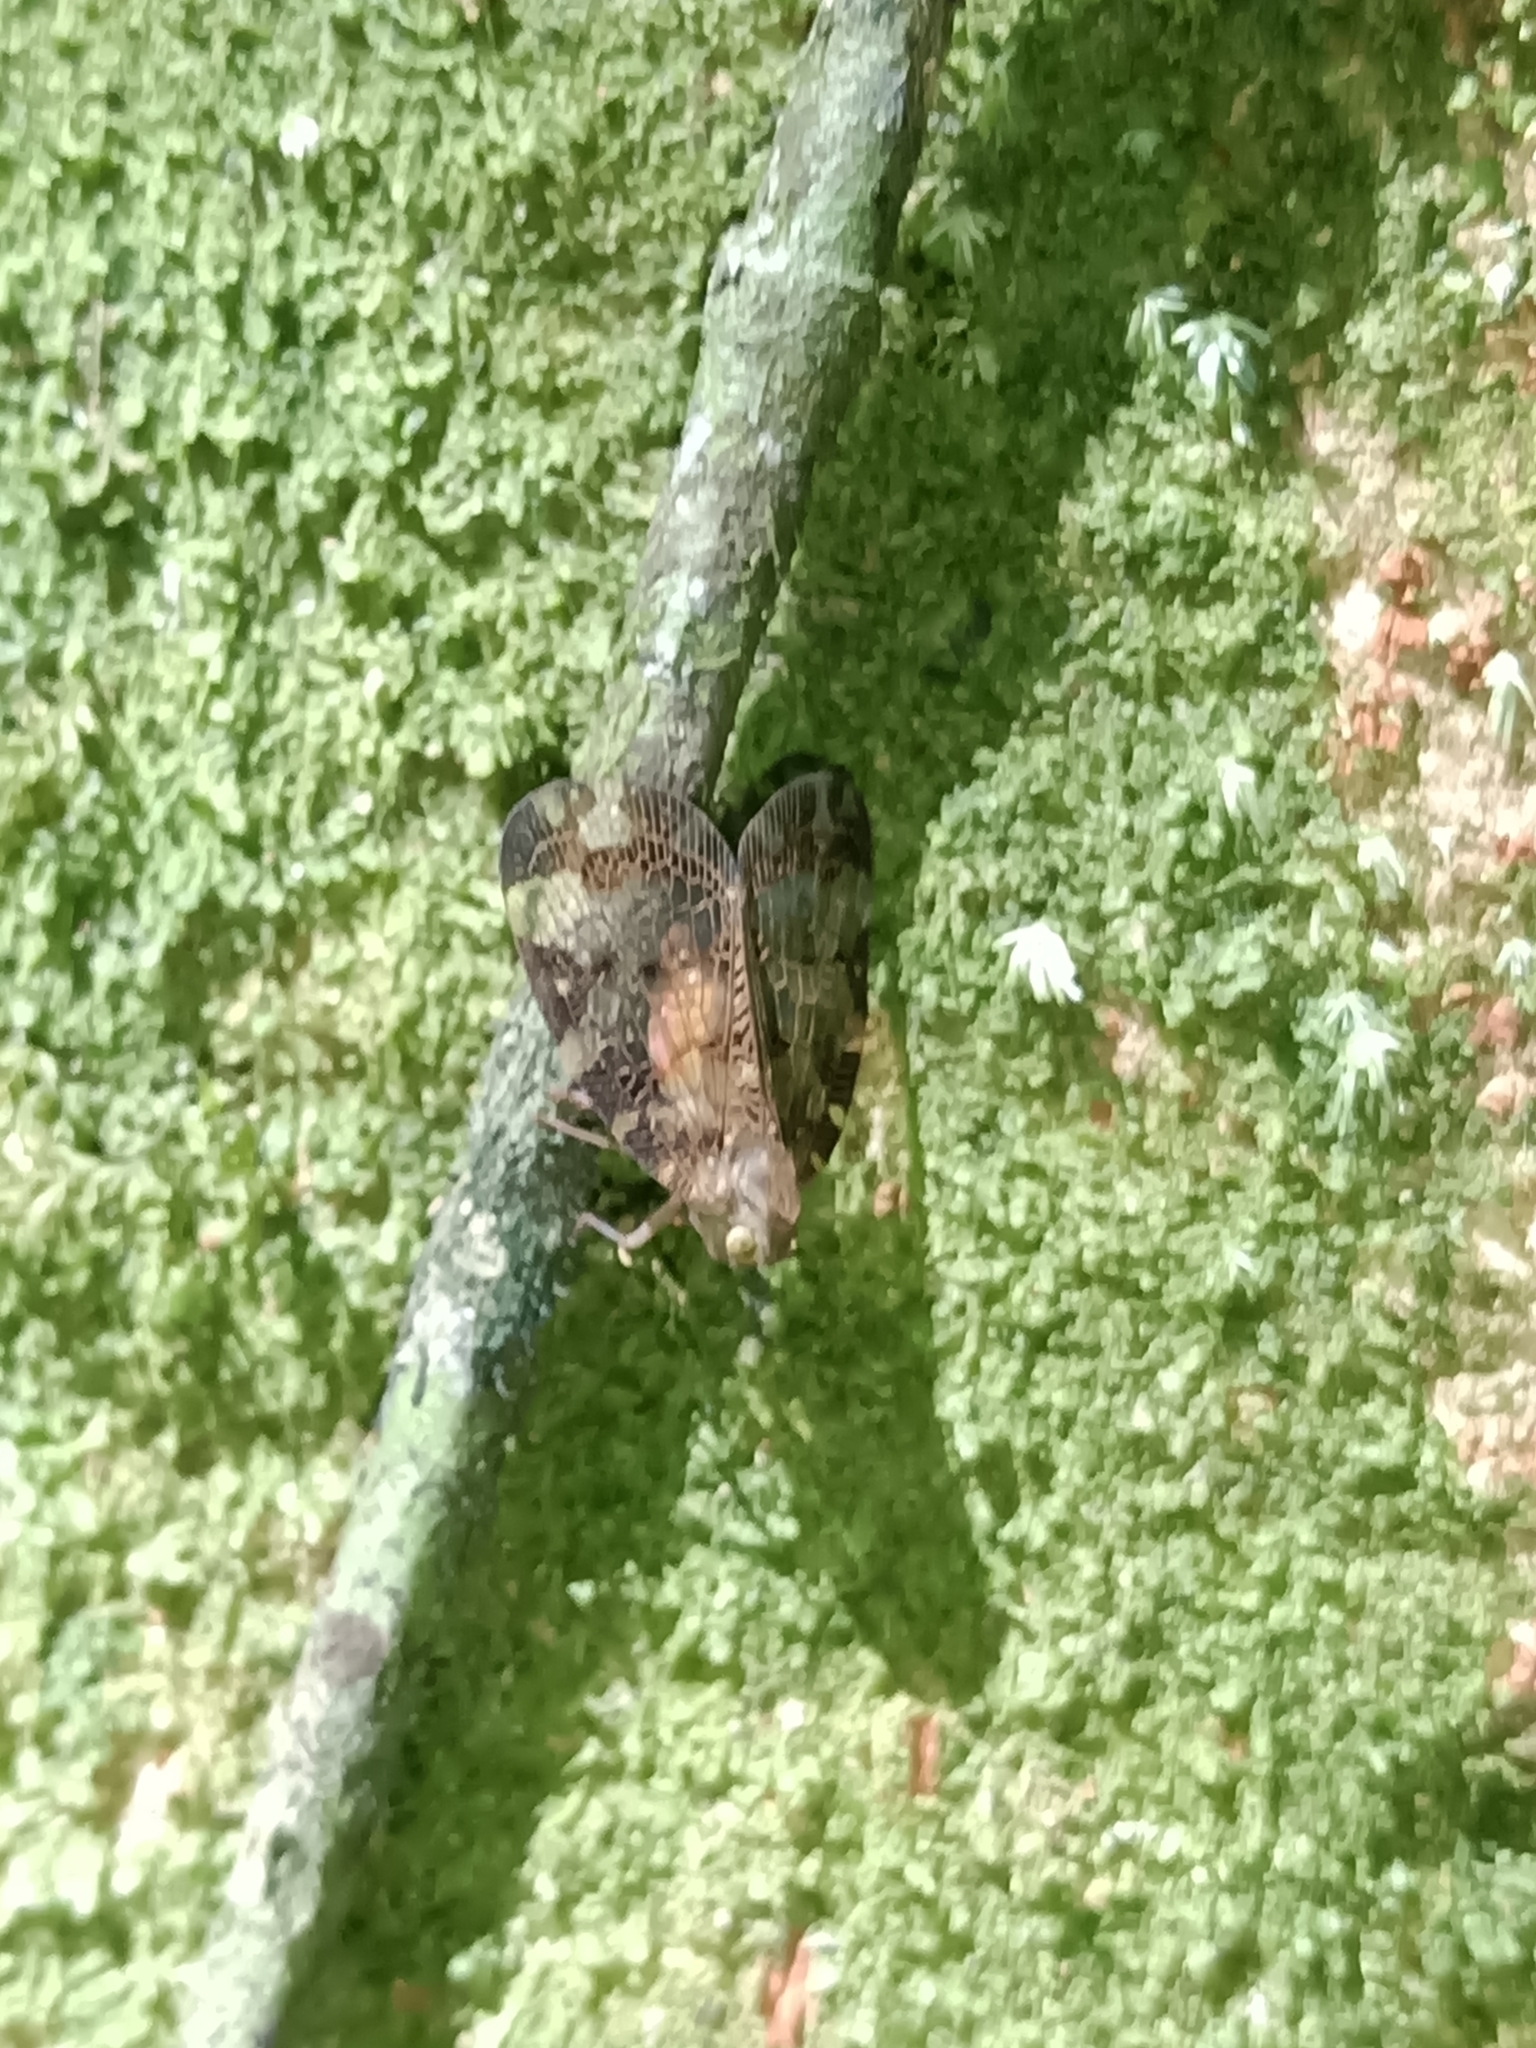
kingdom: Animalia
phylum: Arthropoda
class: Insecta
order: Hemiptera
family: Nogodinidae
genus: Nogodina
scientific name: Nogodina reticulata
